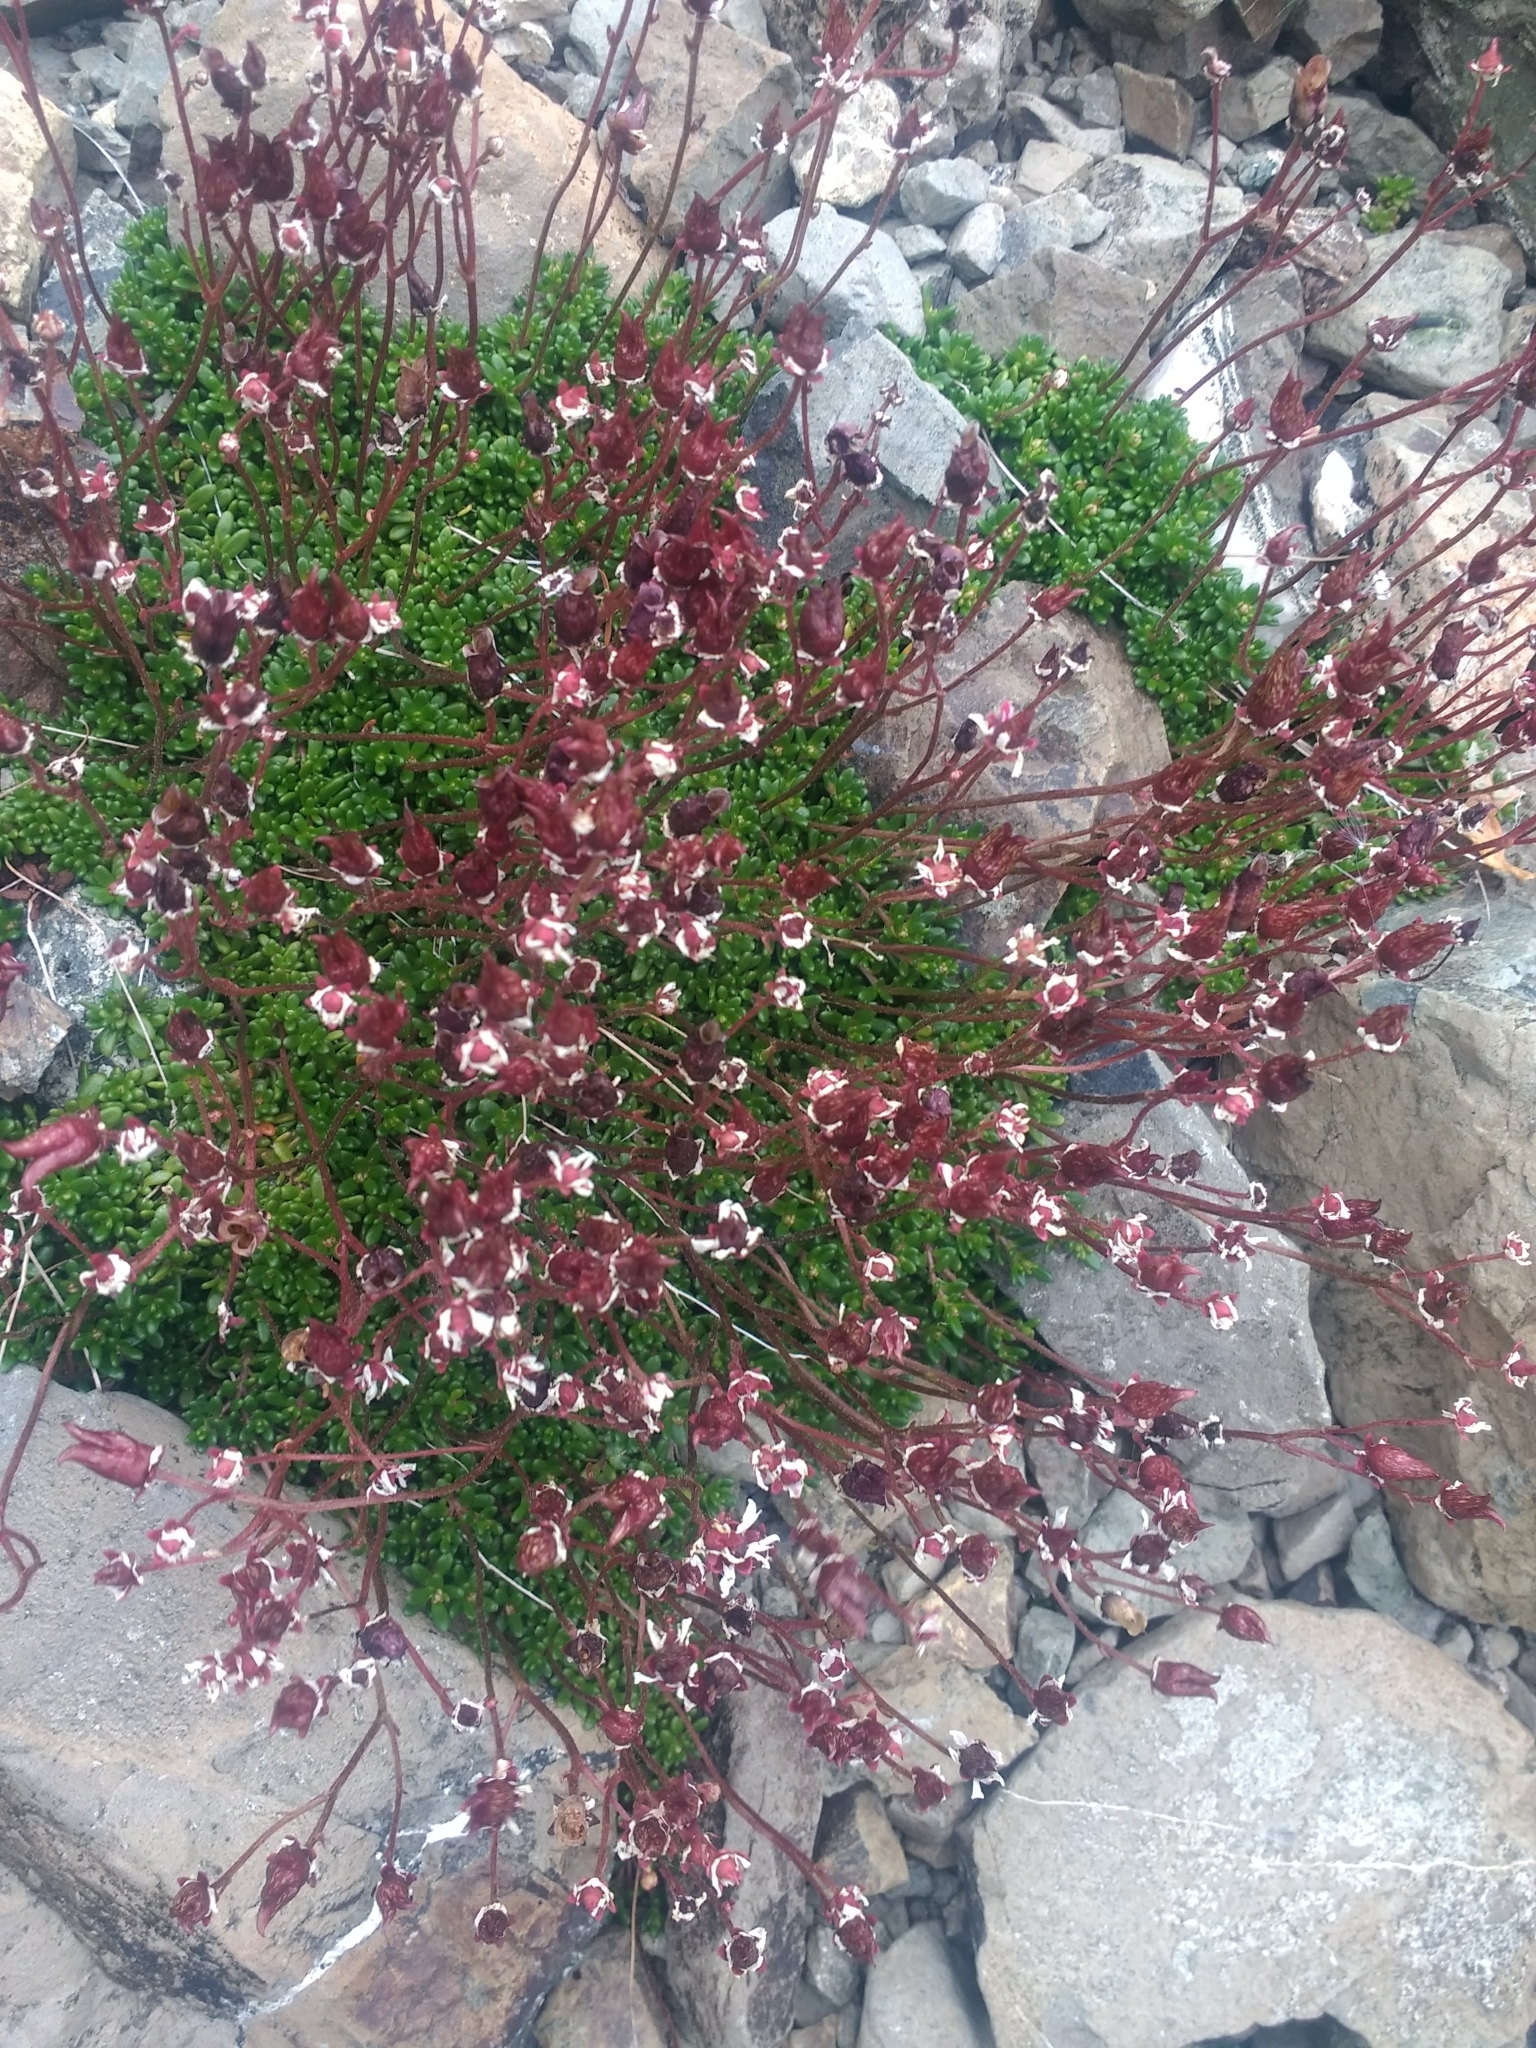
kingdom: Plantae
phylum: Tracheophyta
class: Magnoliopsida
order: Saxifragales
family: Saxifragaceae
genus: Micranthes
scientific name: Micranthes tolmiei
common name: Tolmie's saxifrage
